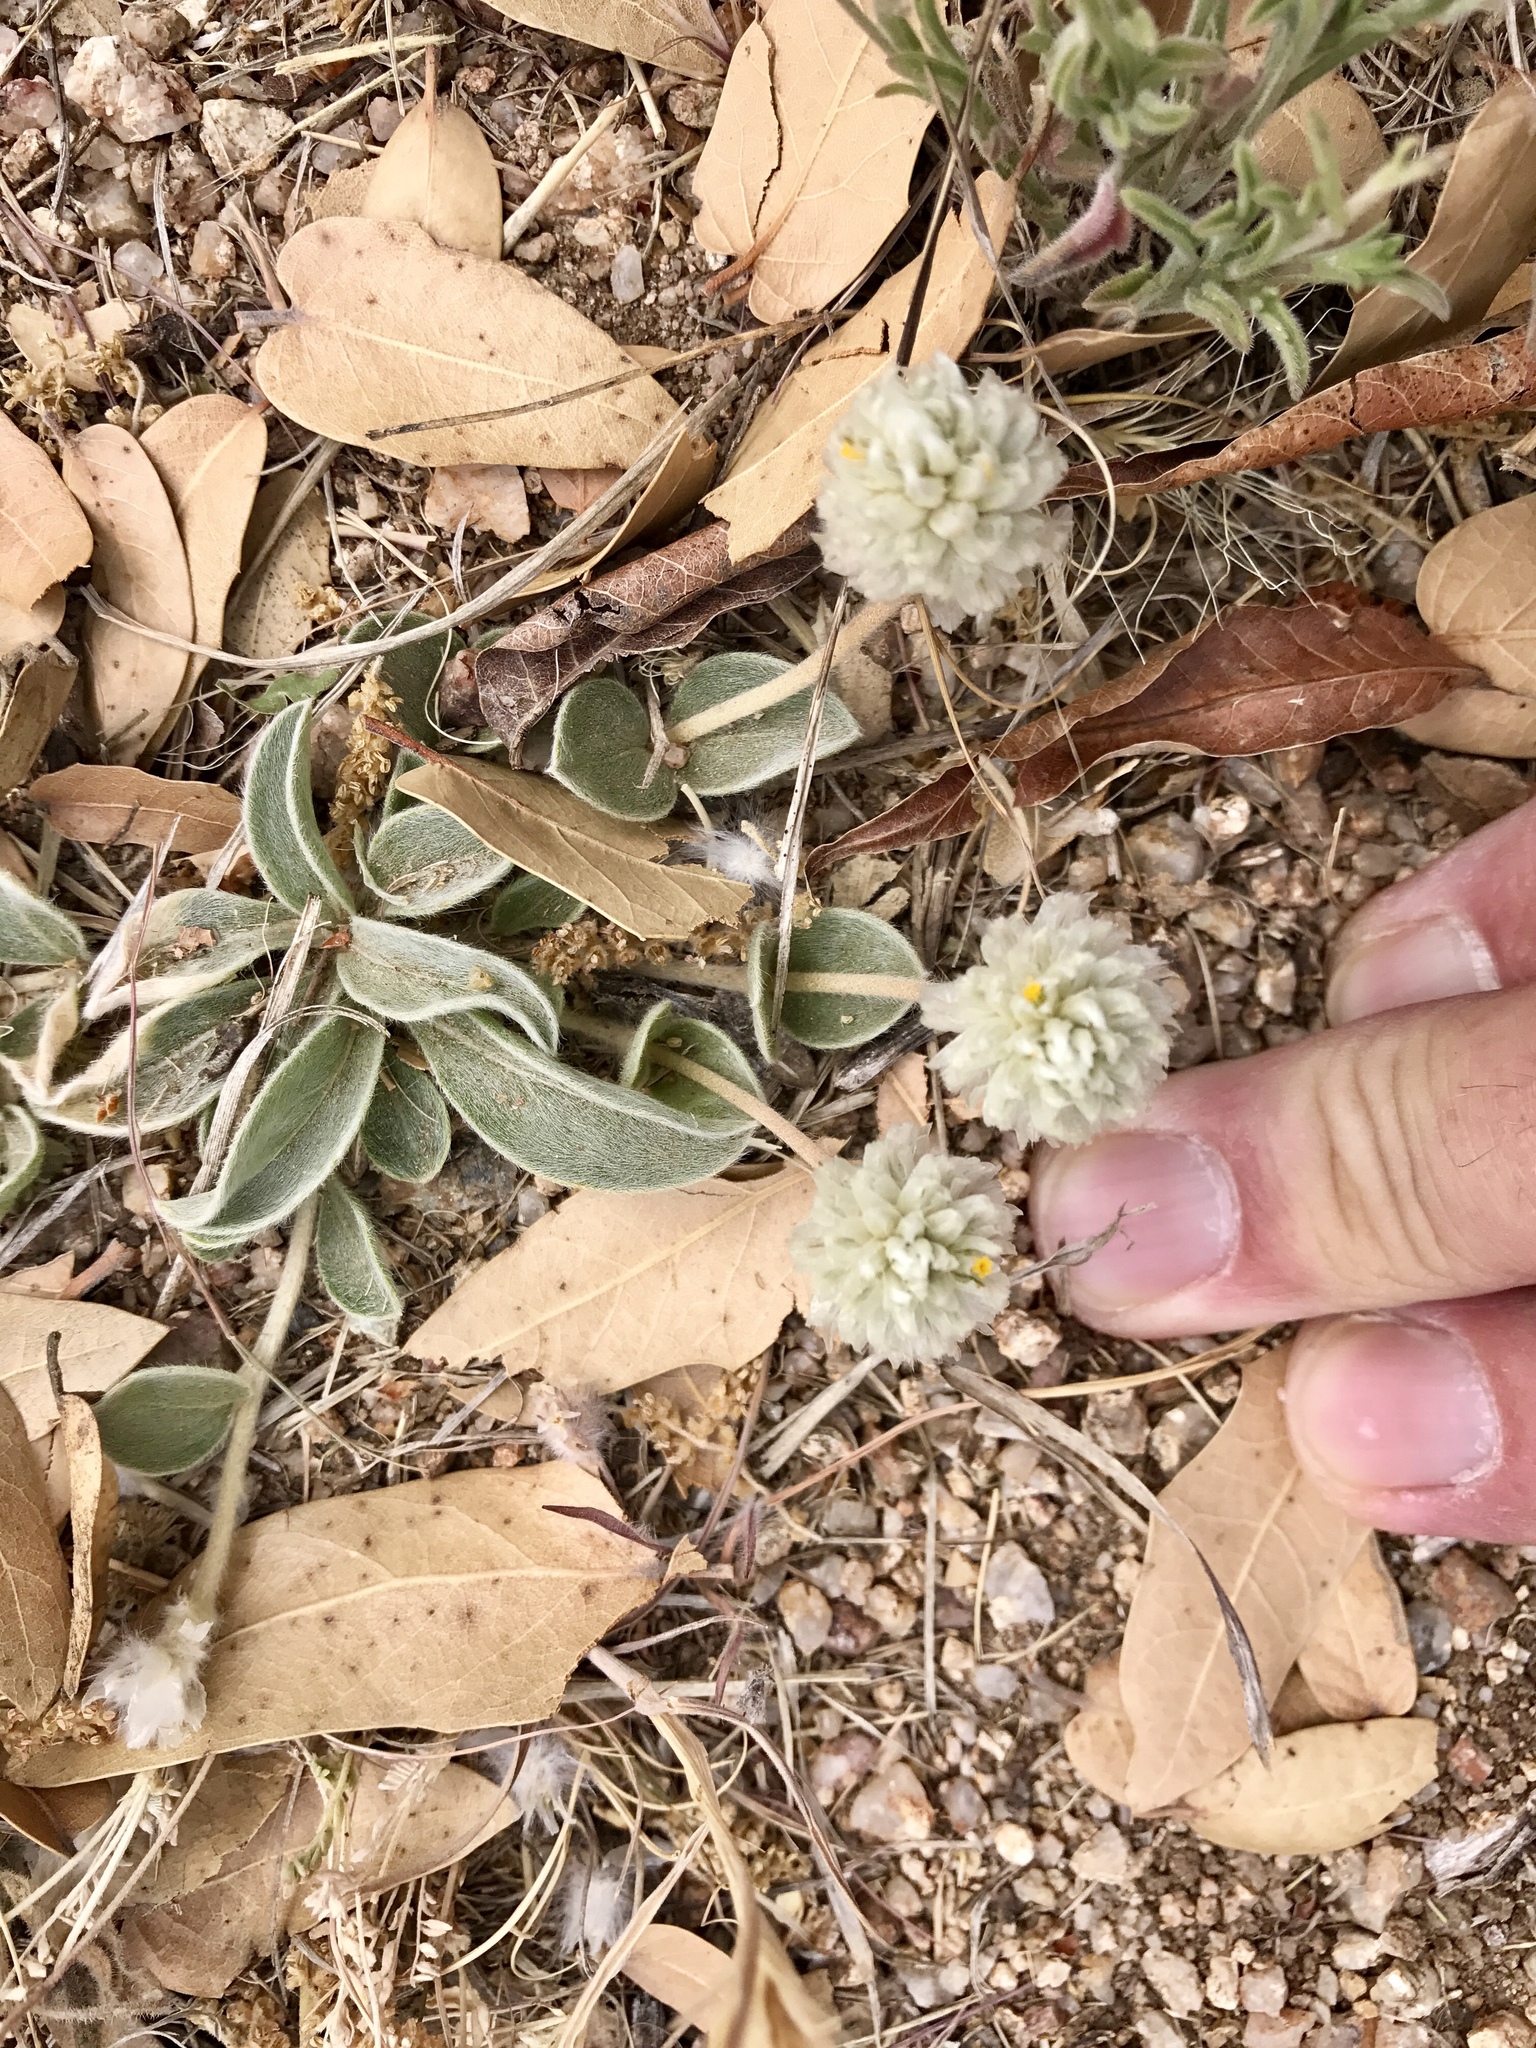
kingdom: Plantae
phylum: Tracheophyta
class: Magnoliopsida
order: Caryophyllales
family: Amaranthaceae
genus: Gomphrena
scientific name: Gomphrena caespitosa
